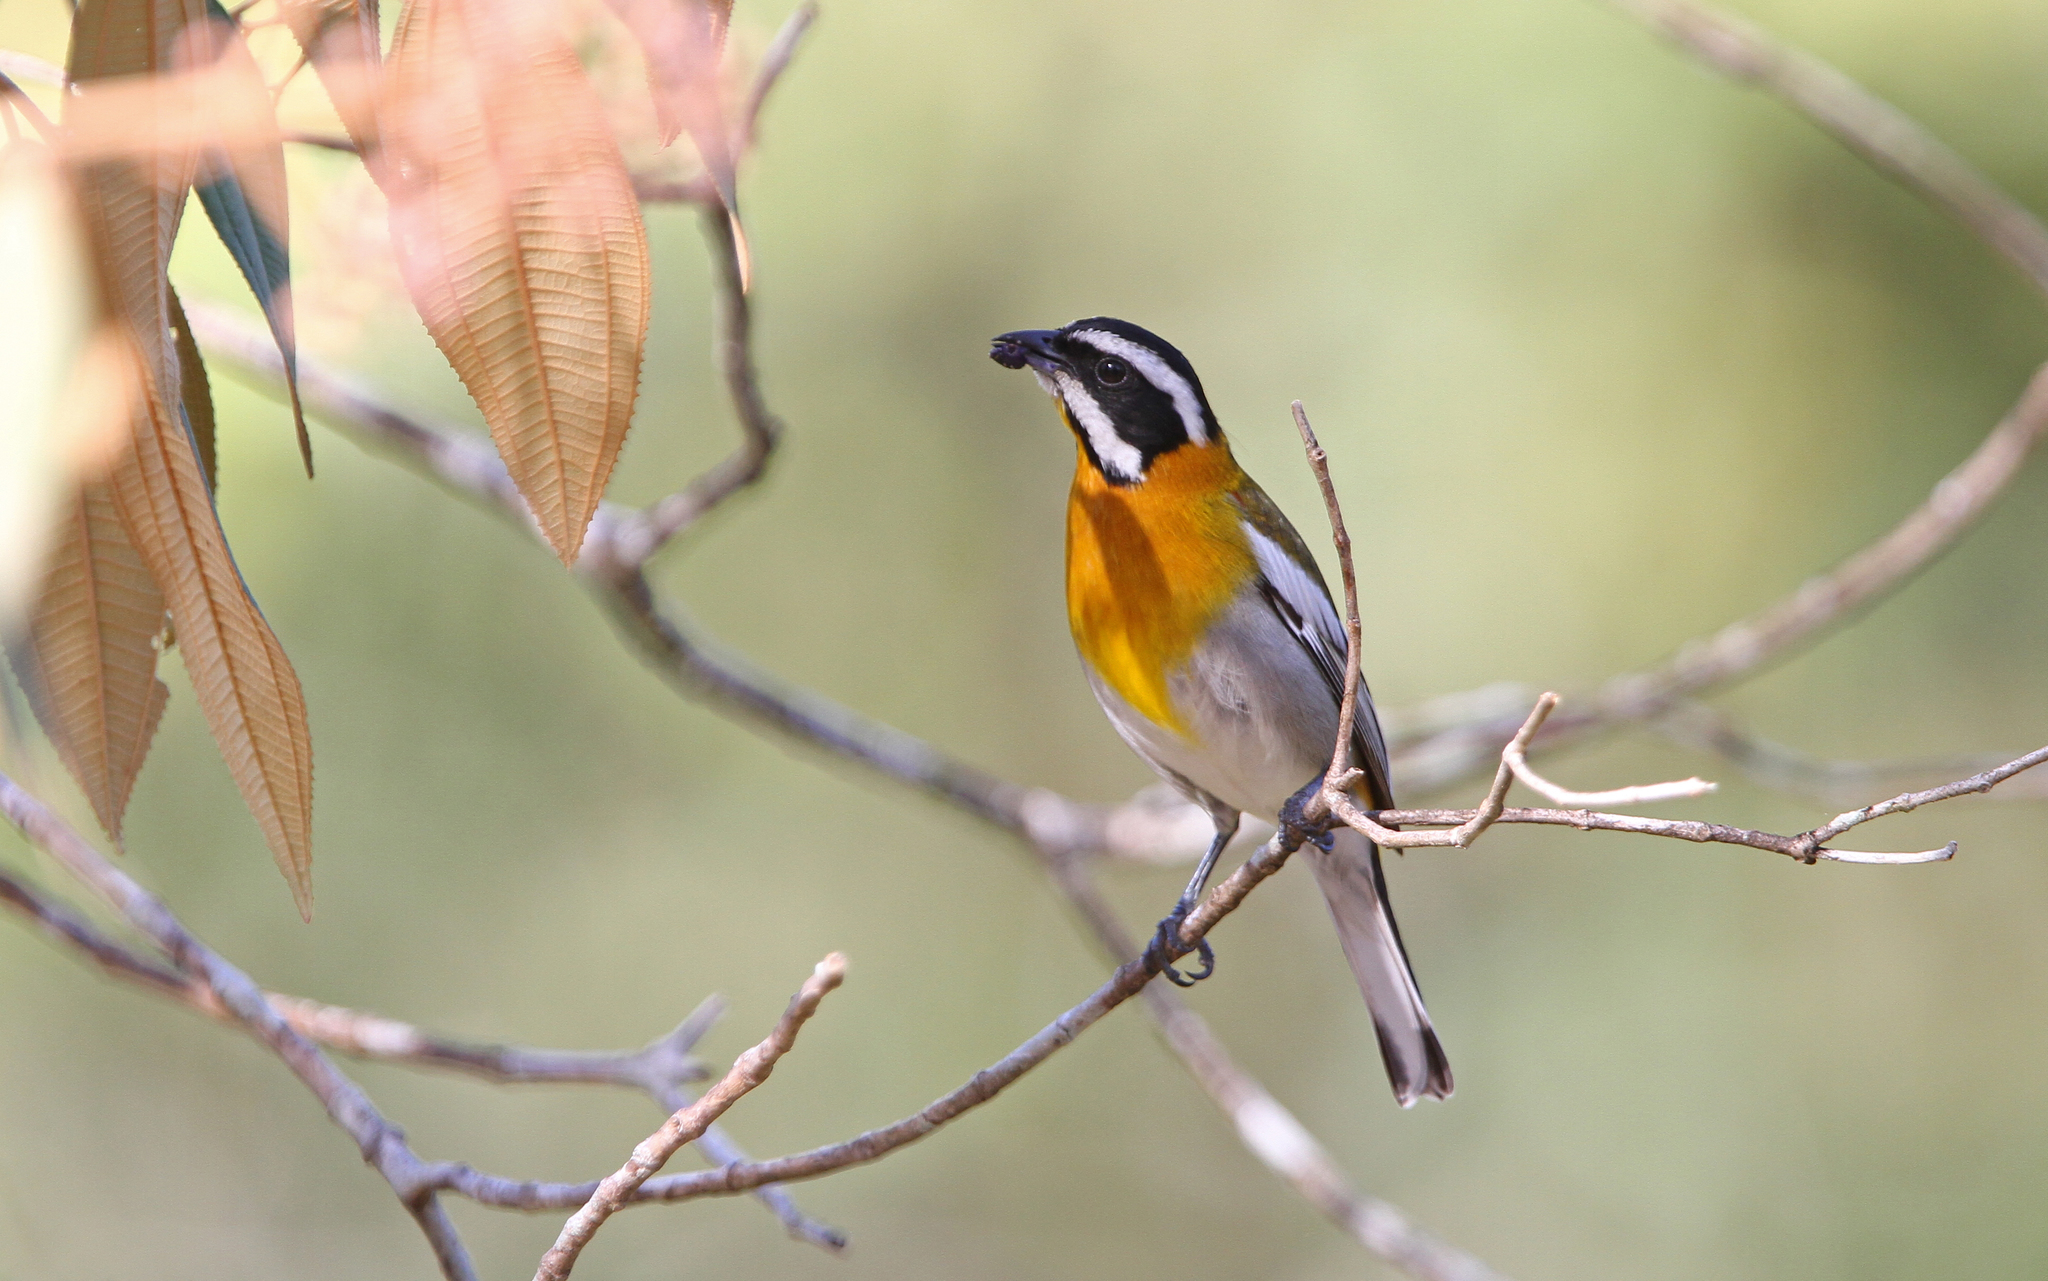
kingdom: Animalia
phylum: Chordata
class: Aves
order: Passeriformes
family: Spindalidae
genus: Spindalis
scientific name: Spindalis zena
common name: Western spindalis
